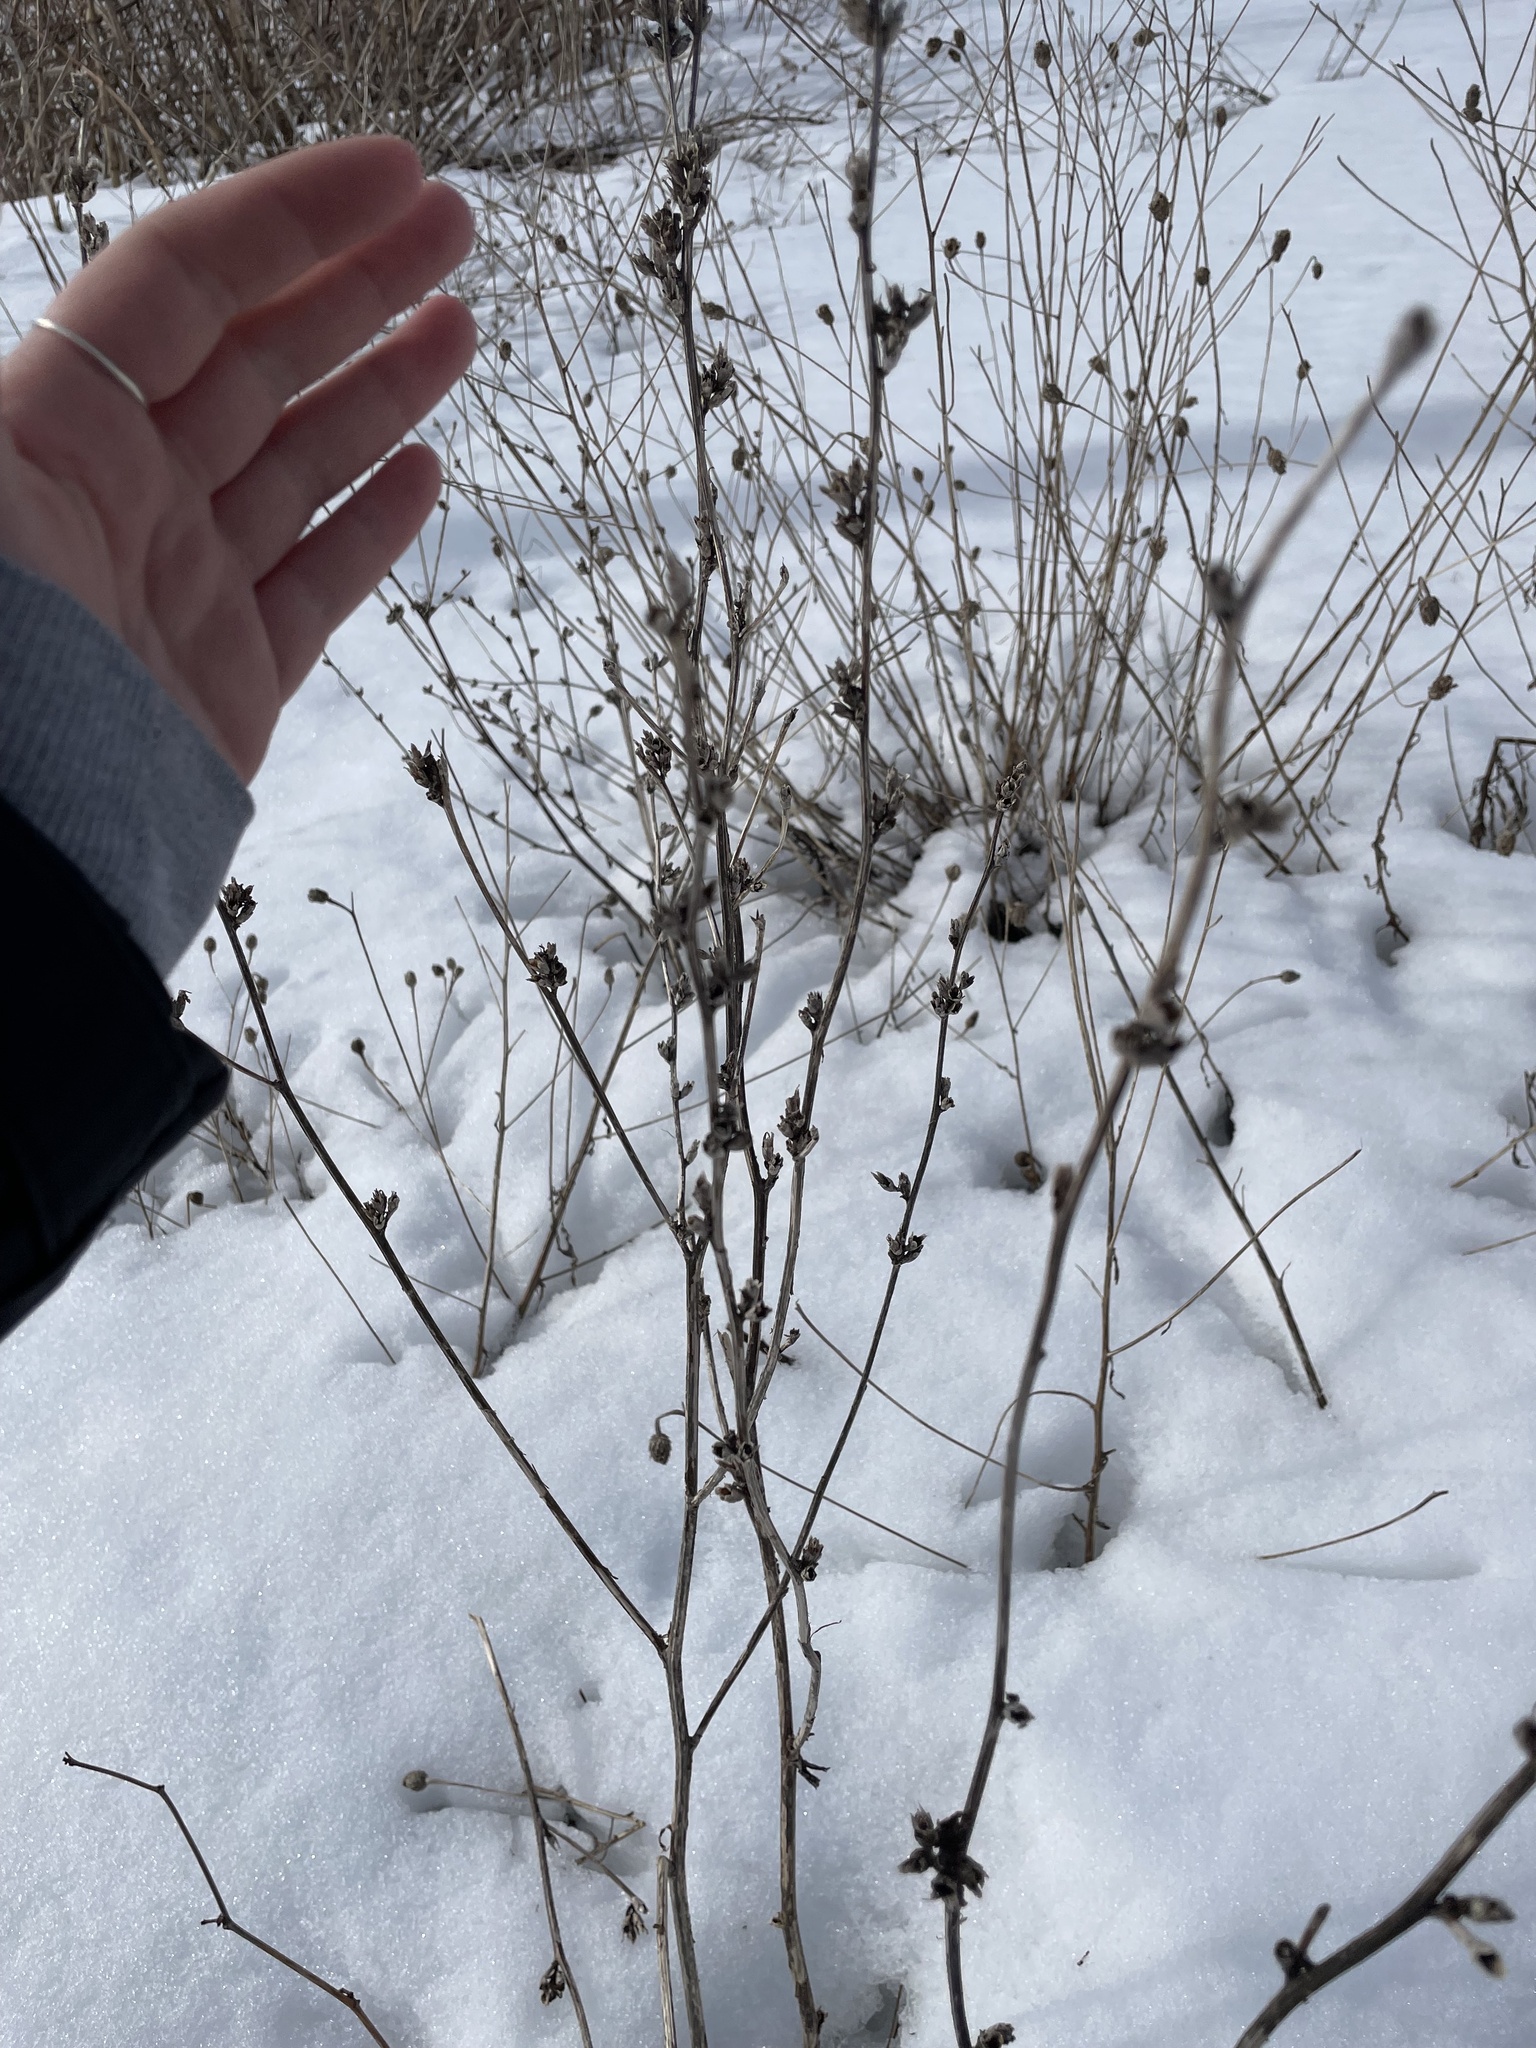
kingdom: Plantae
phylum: Tracheophyta
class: Magnoliopsida
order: Asterales
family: Asteraceae
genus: Cichorium
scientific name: Cichorium intybus
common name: Chicory
